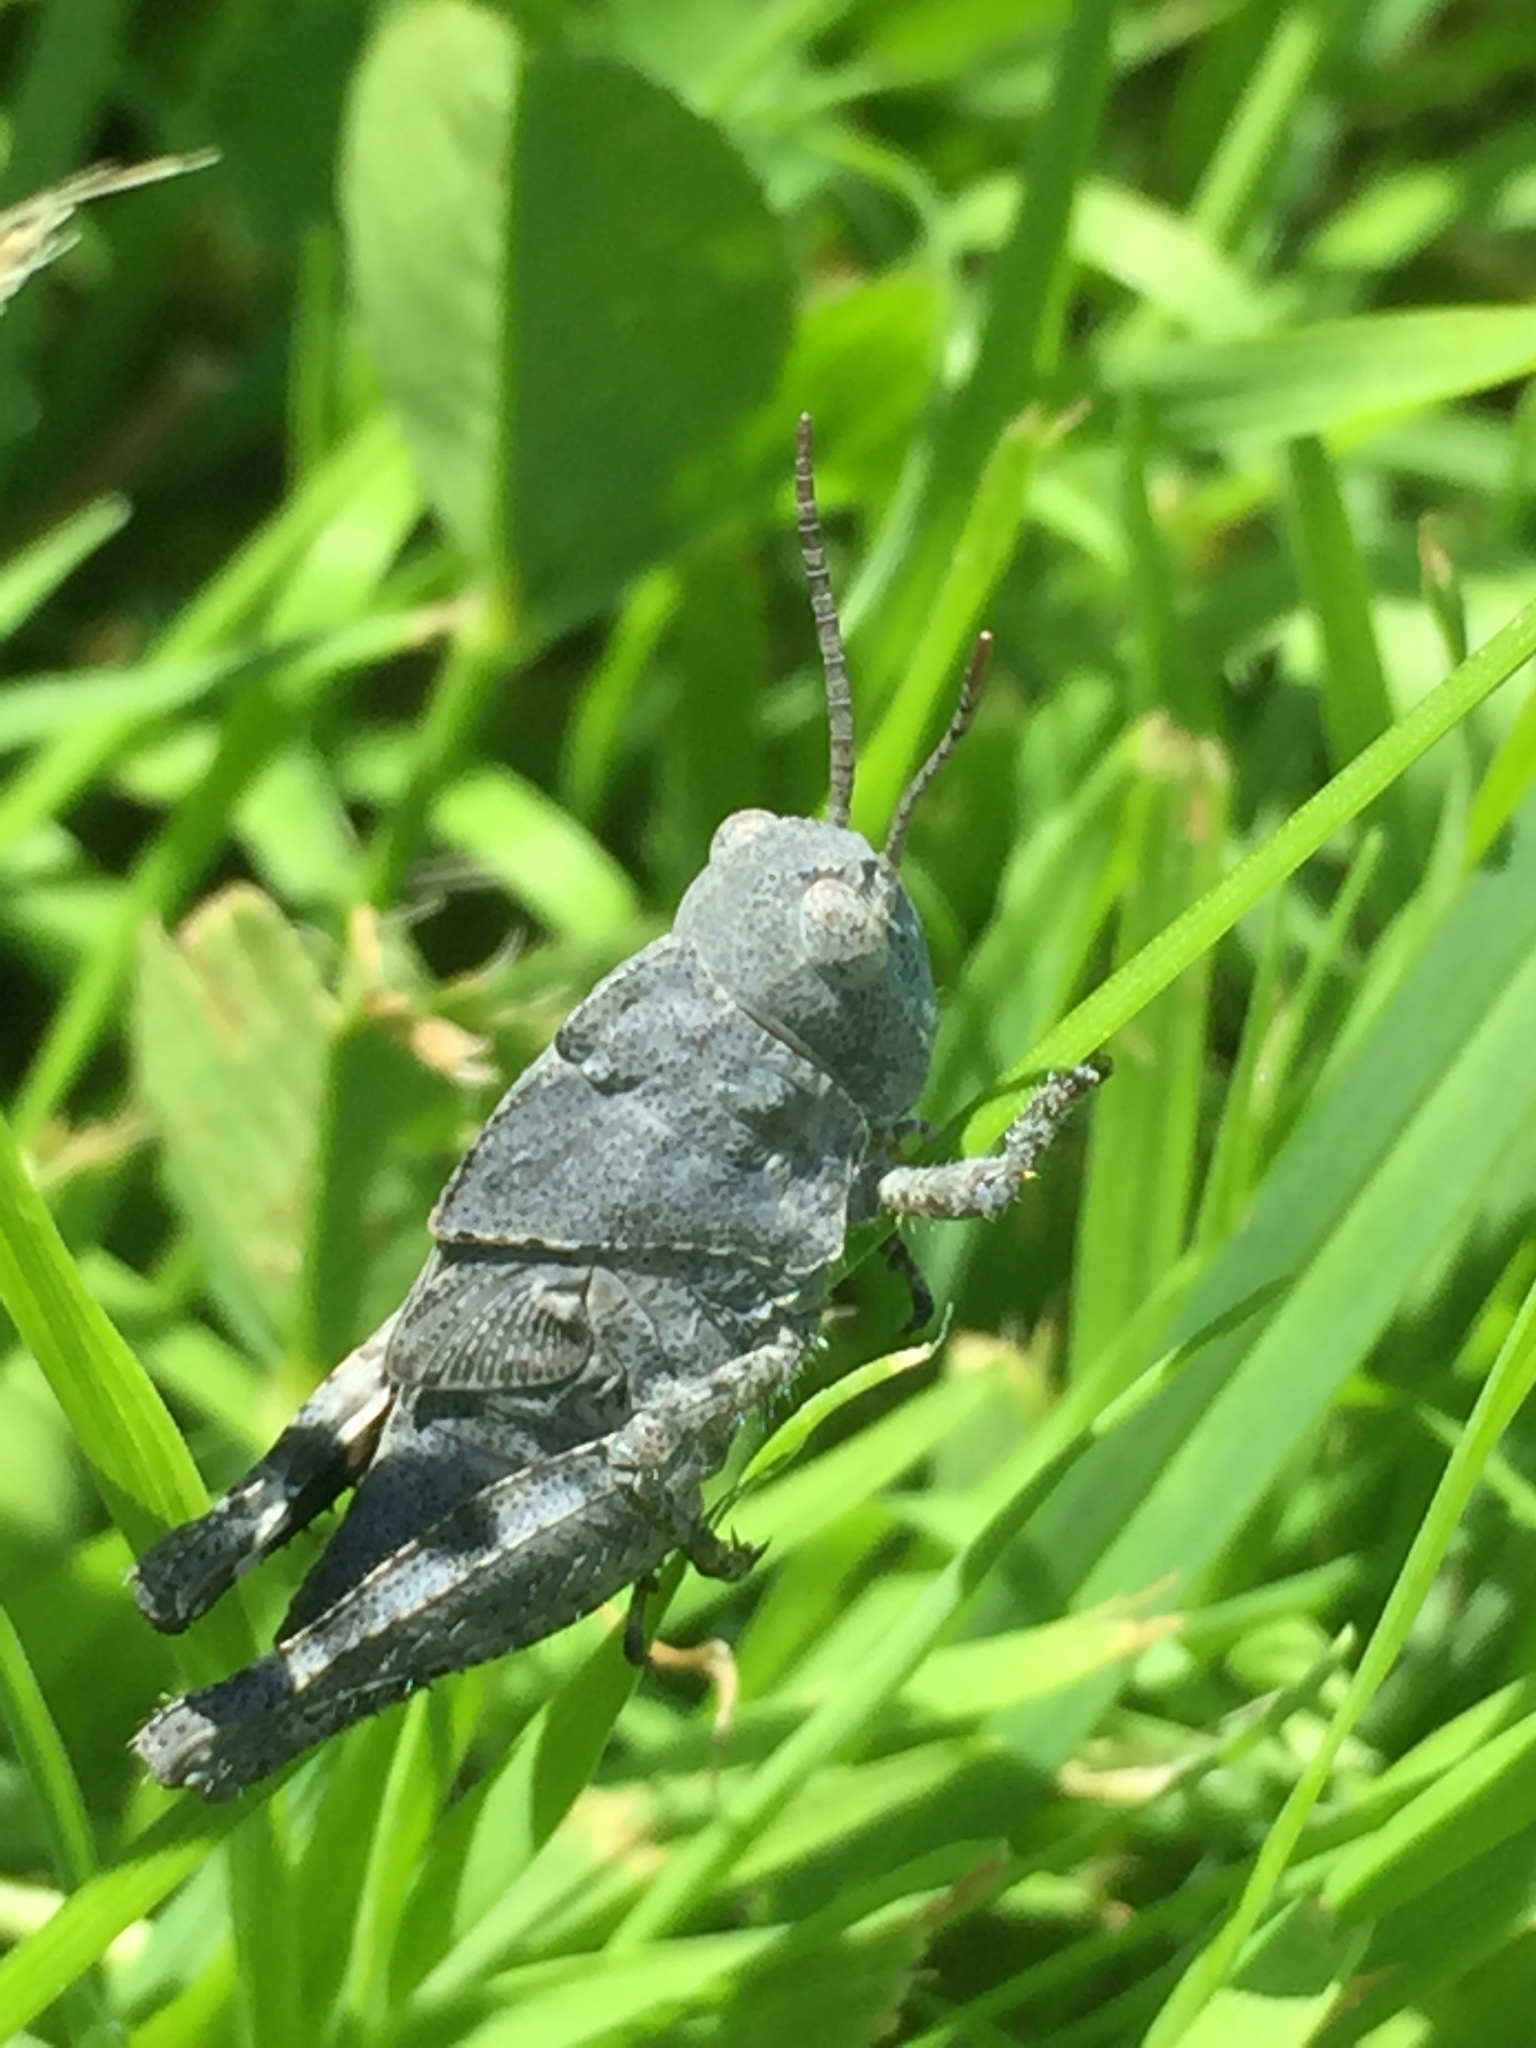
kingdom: Animalia
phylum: Arthropoda
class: Insecta
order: Orthoptera
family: Acrididae
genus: Dissosteira
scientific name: Dissosteira carolina
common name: Carolina grasshopper
